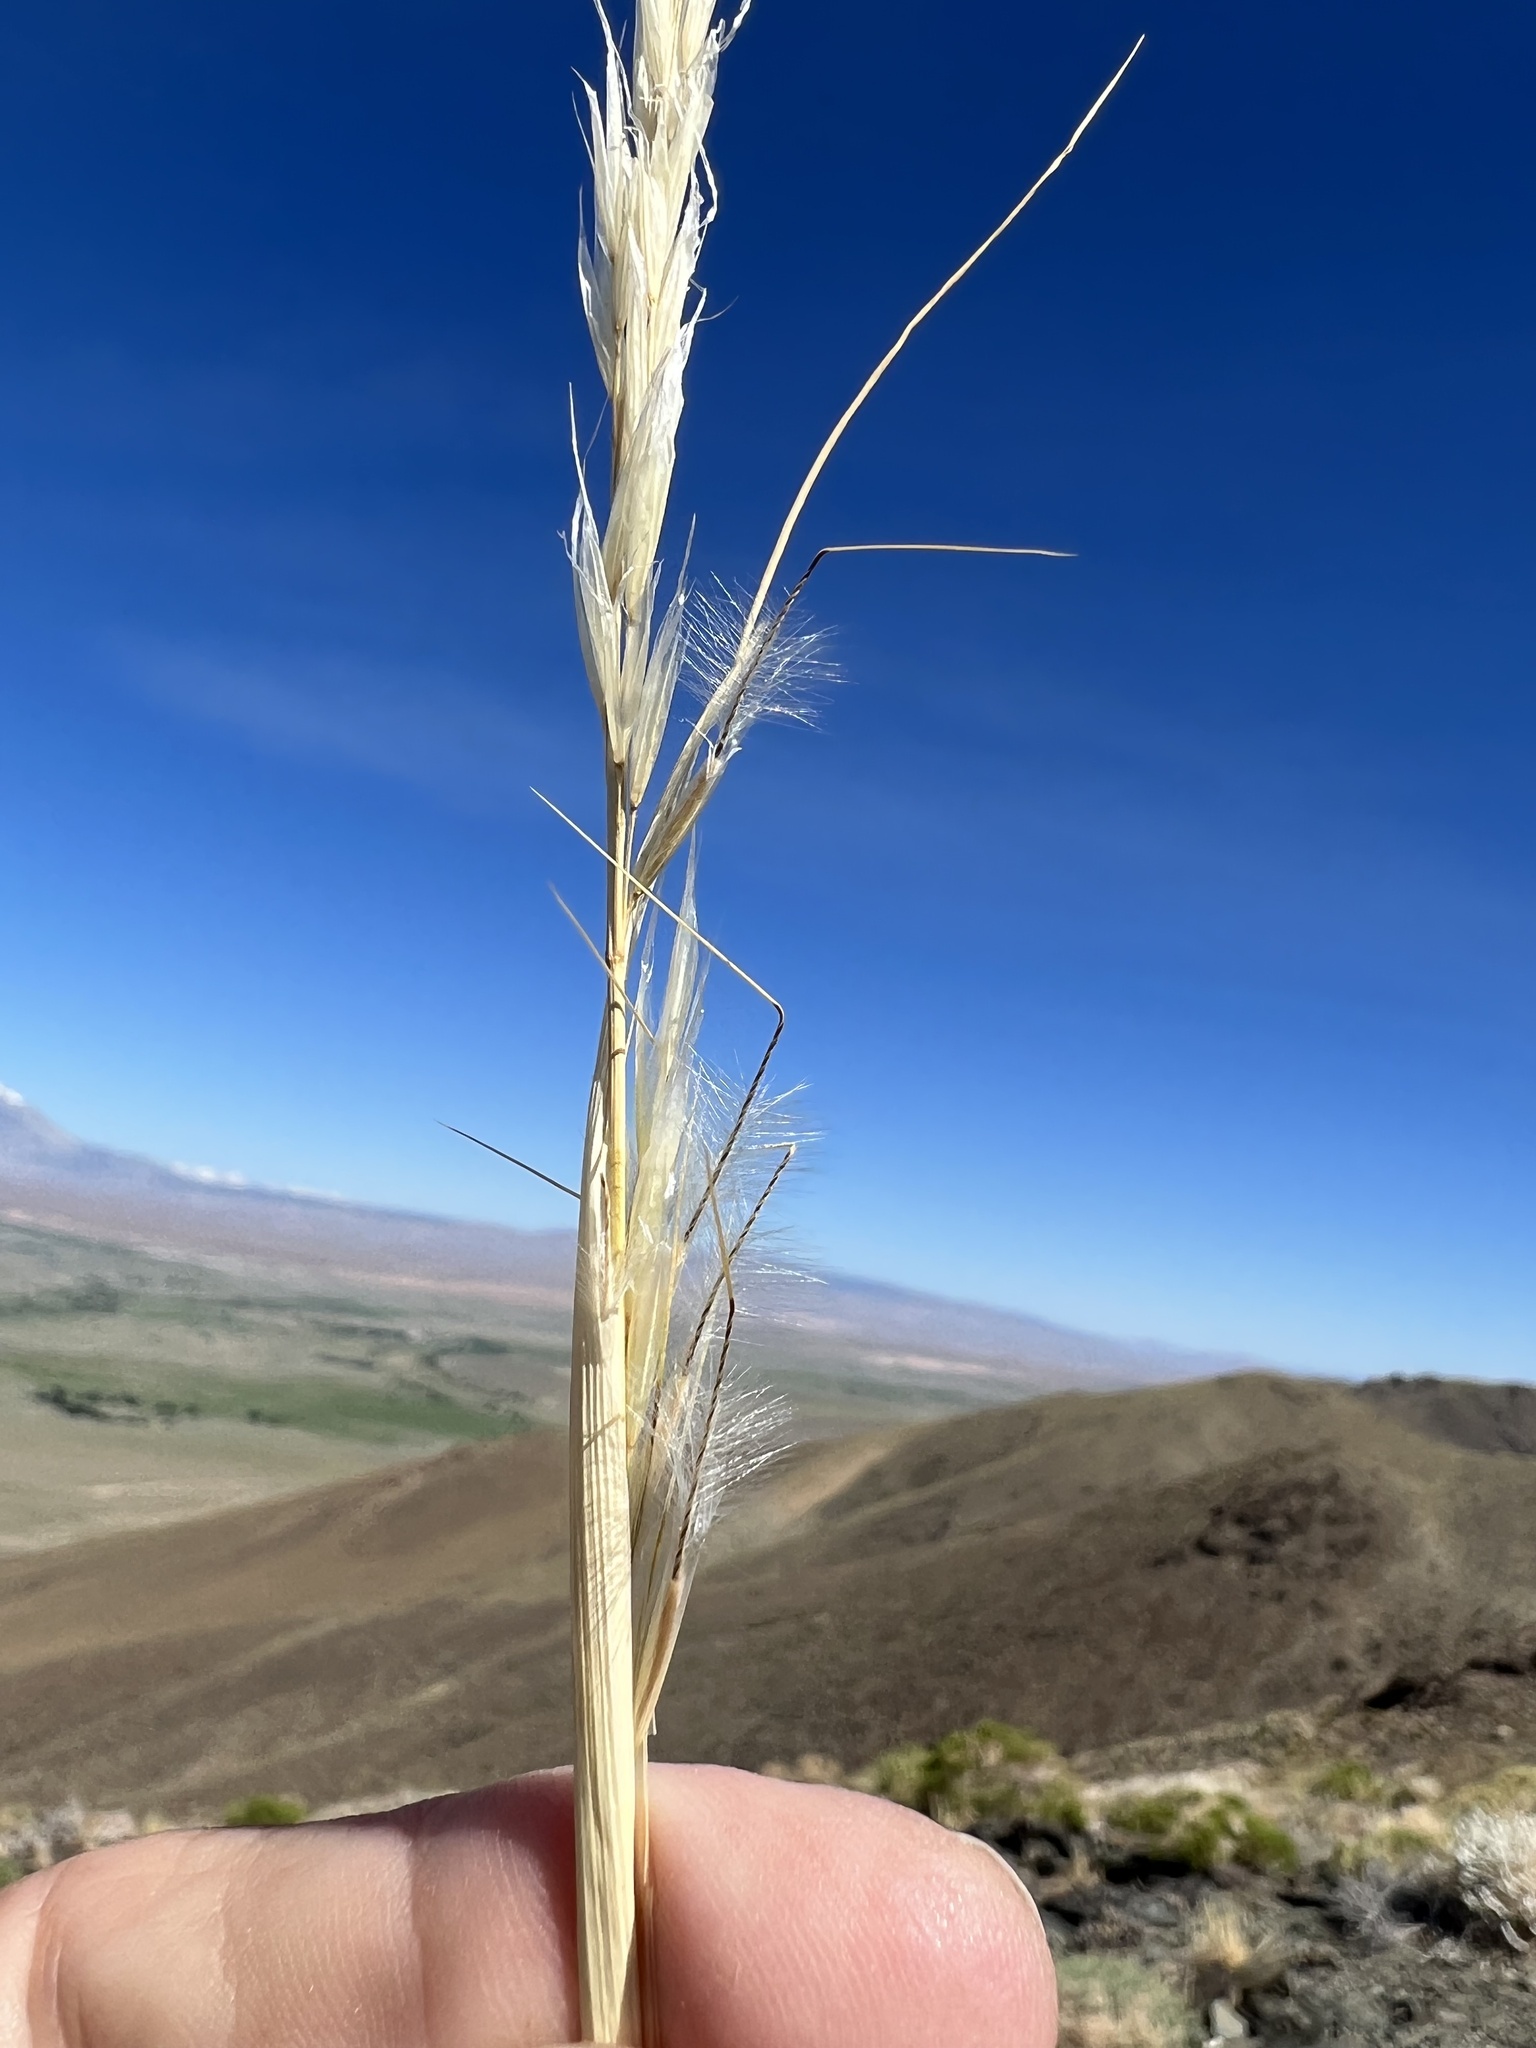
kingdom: Plantae
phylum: Tracheophyta
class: Liliopsida
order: Poales
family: Poaceae
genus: Pappostipa
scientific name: Pappostipa speciosa
